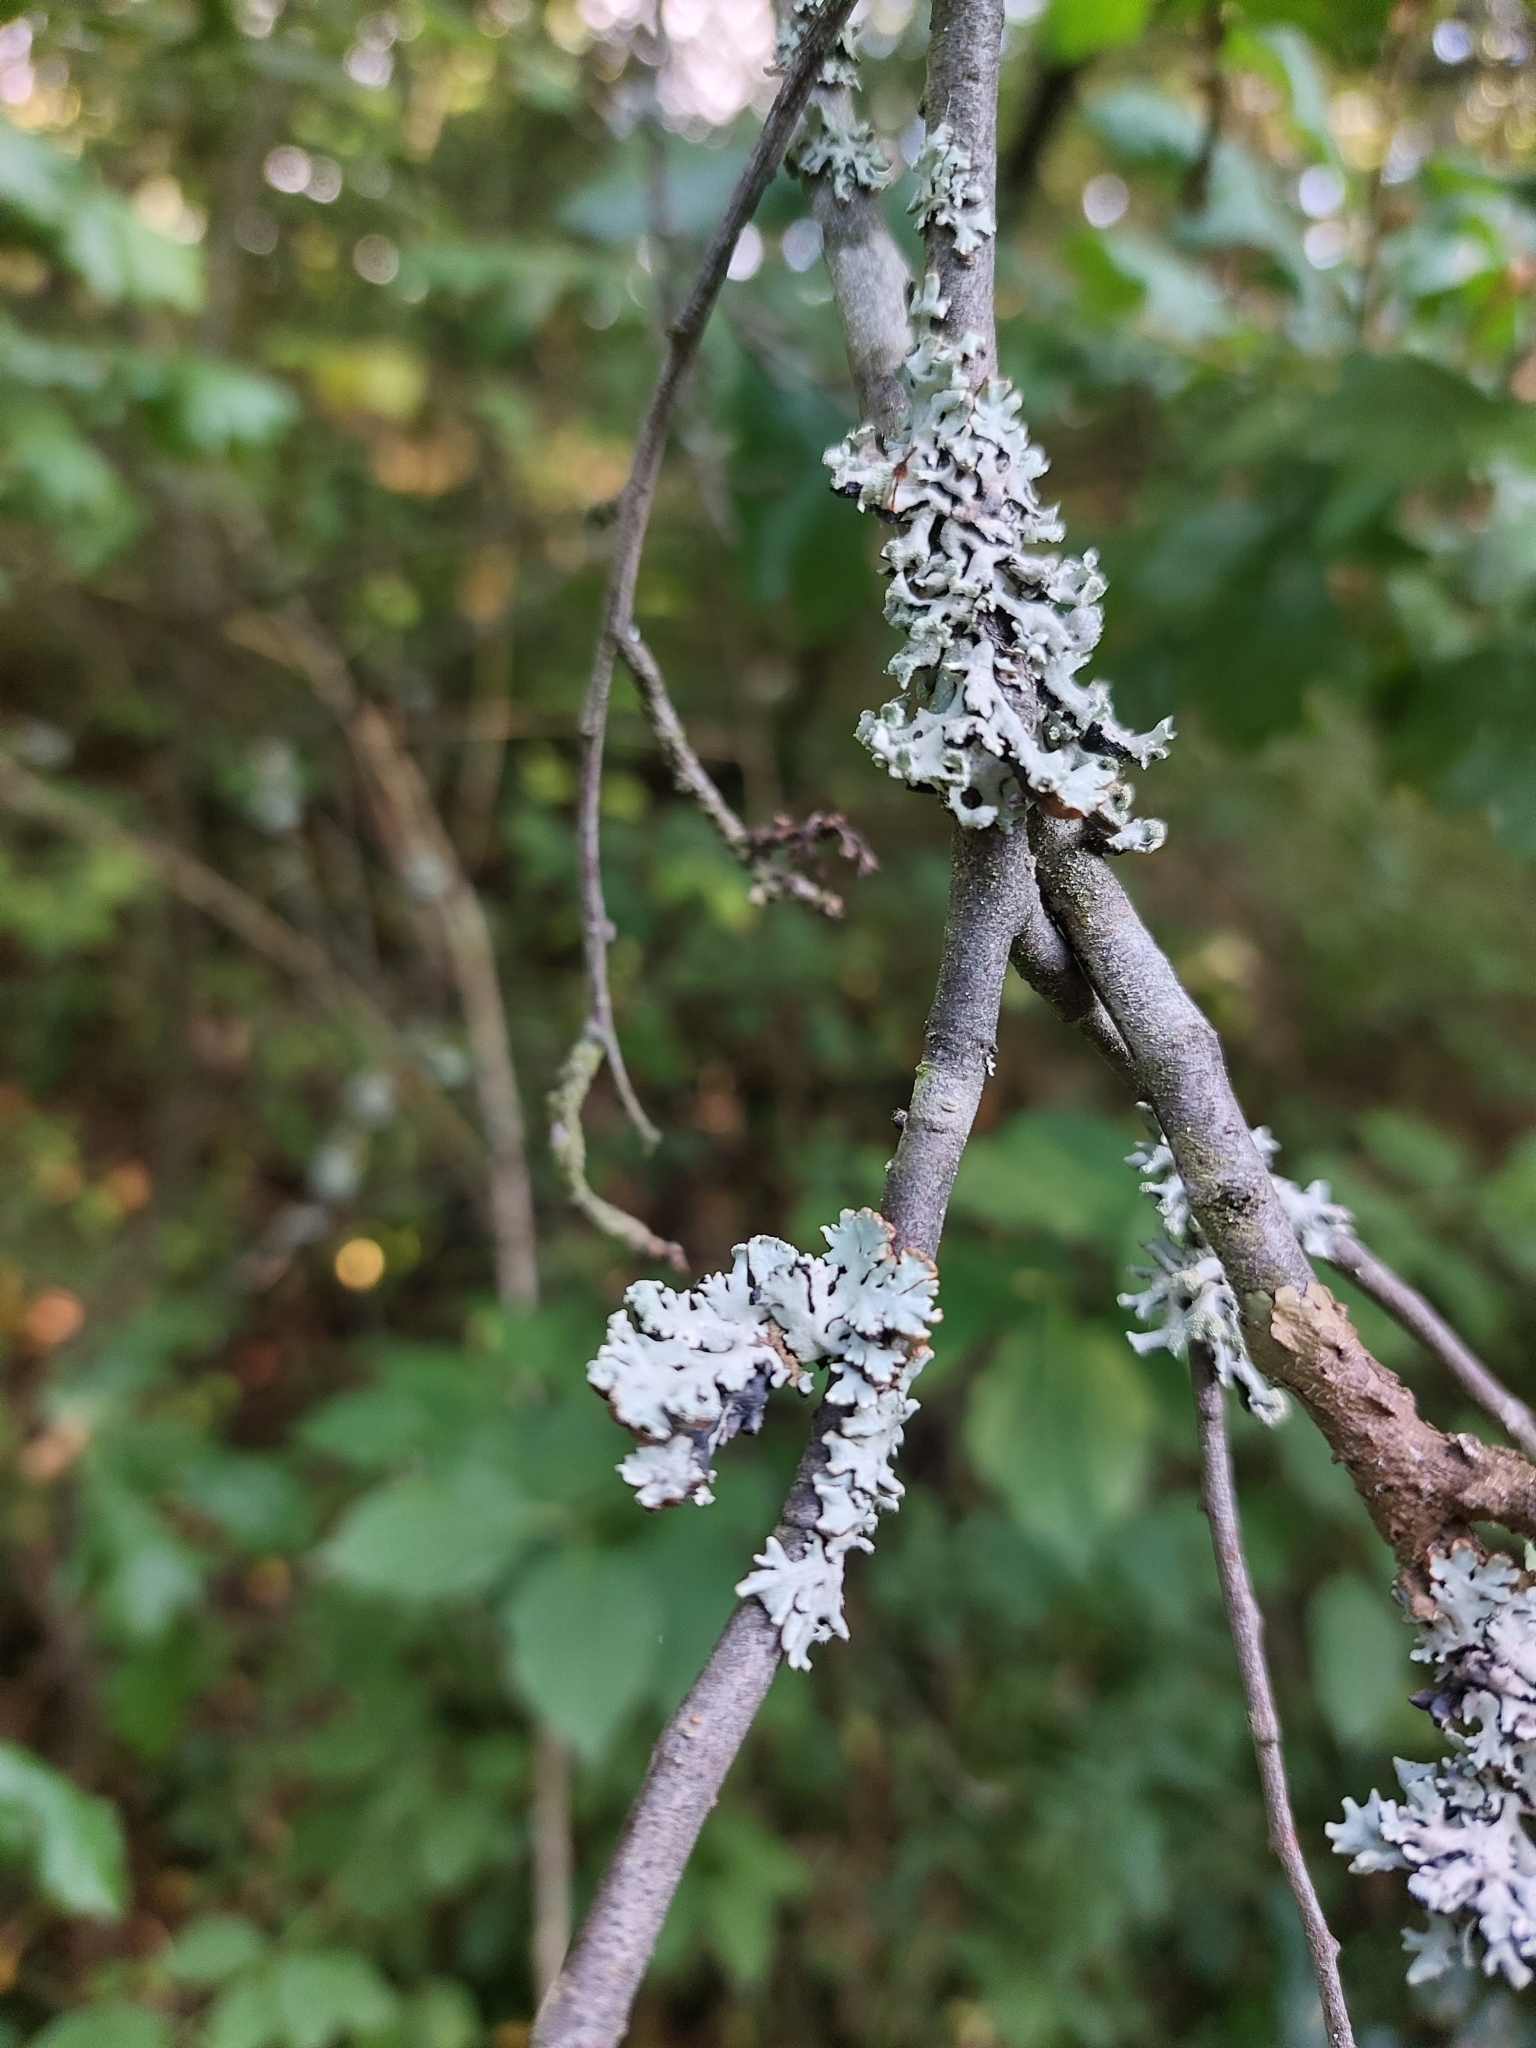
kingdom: Fungi
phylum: Ascomycota
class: Lecanoromycetes
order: Lecanorales
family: Parmeliaceae
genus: Hypogymnia
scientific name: Hypogymnia physodes
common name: Dark crottle
